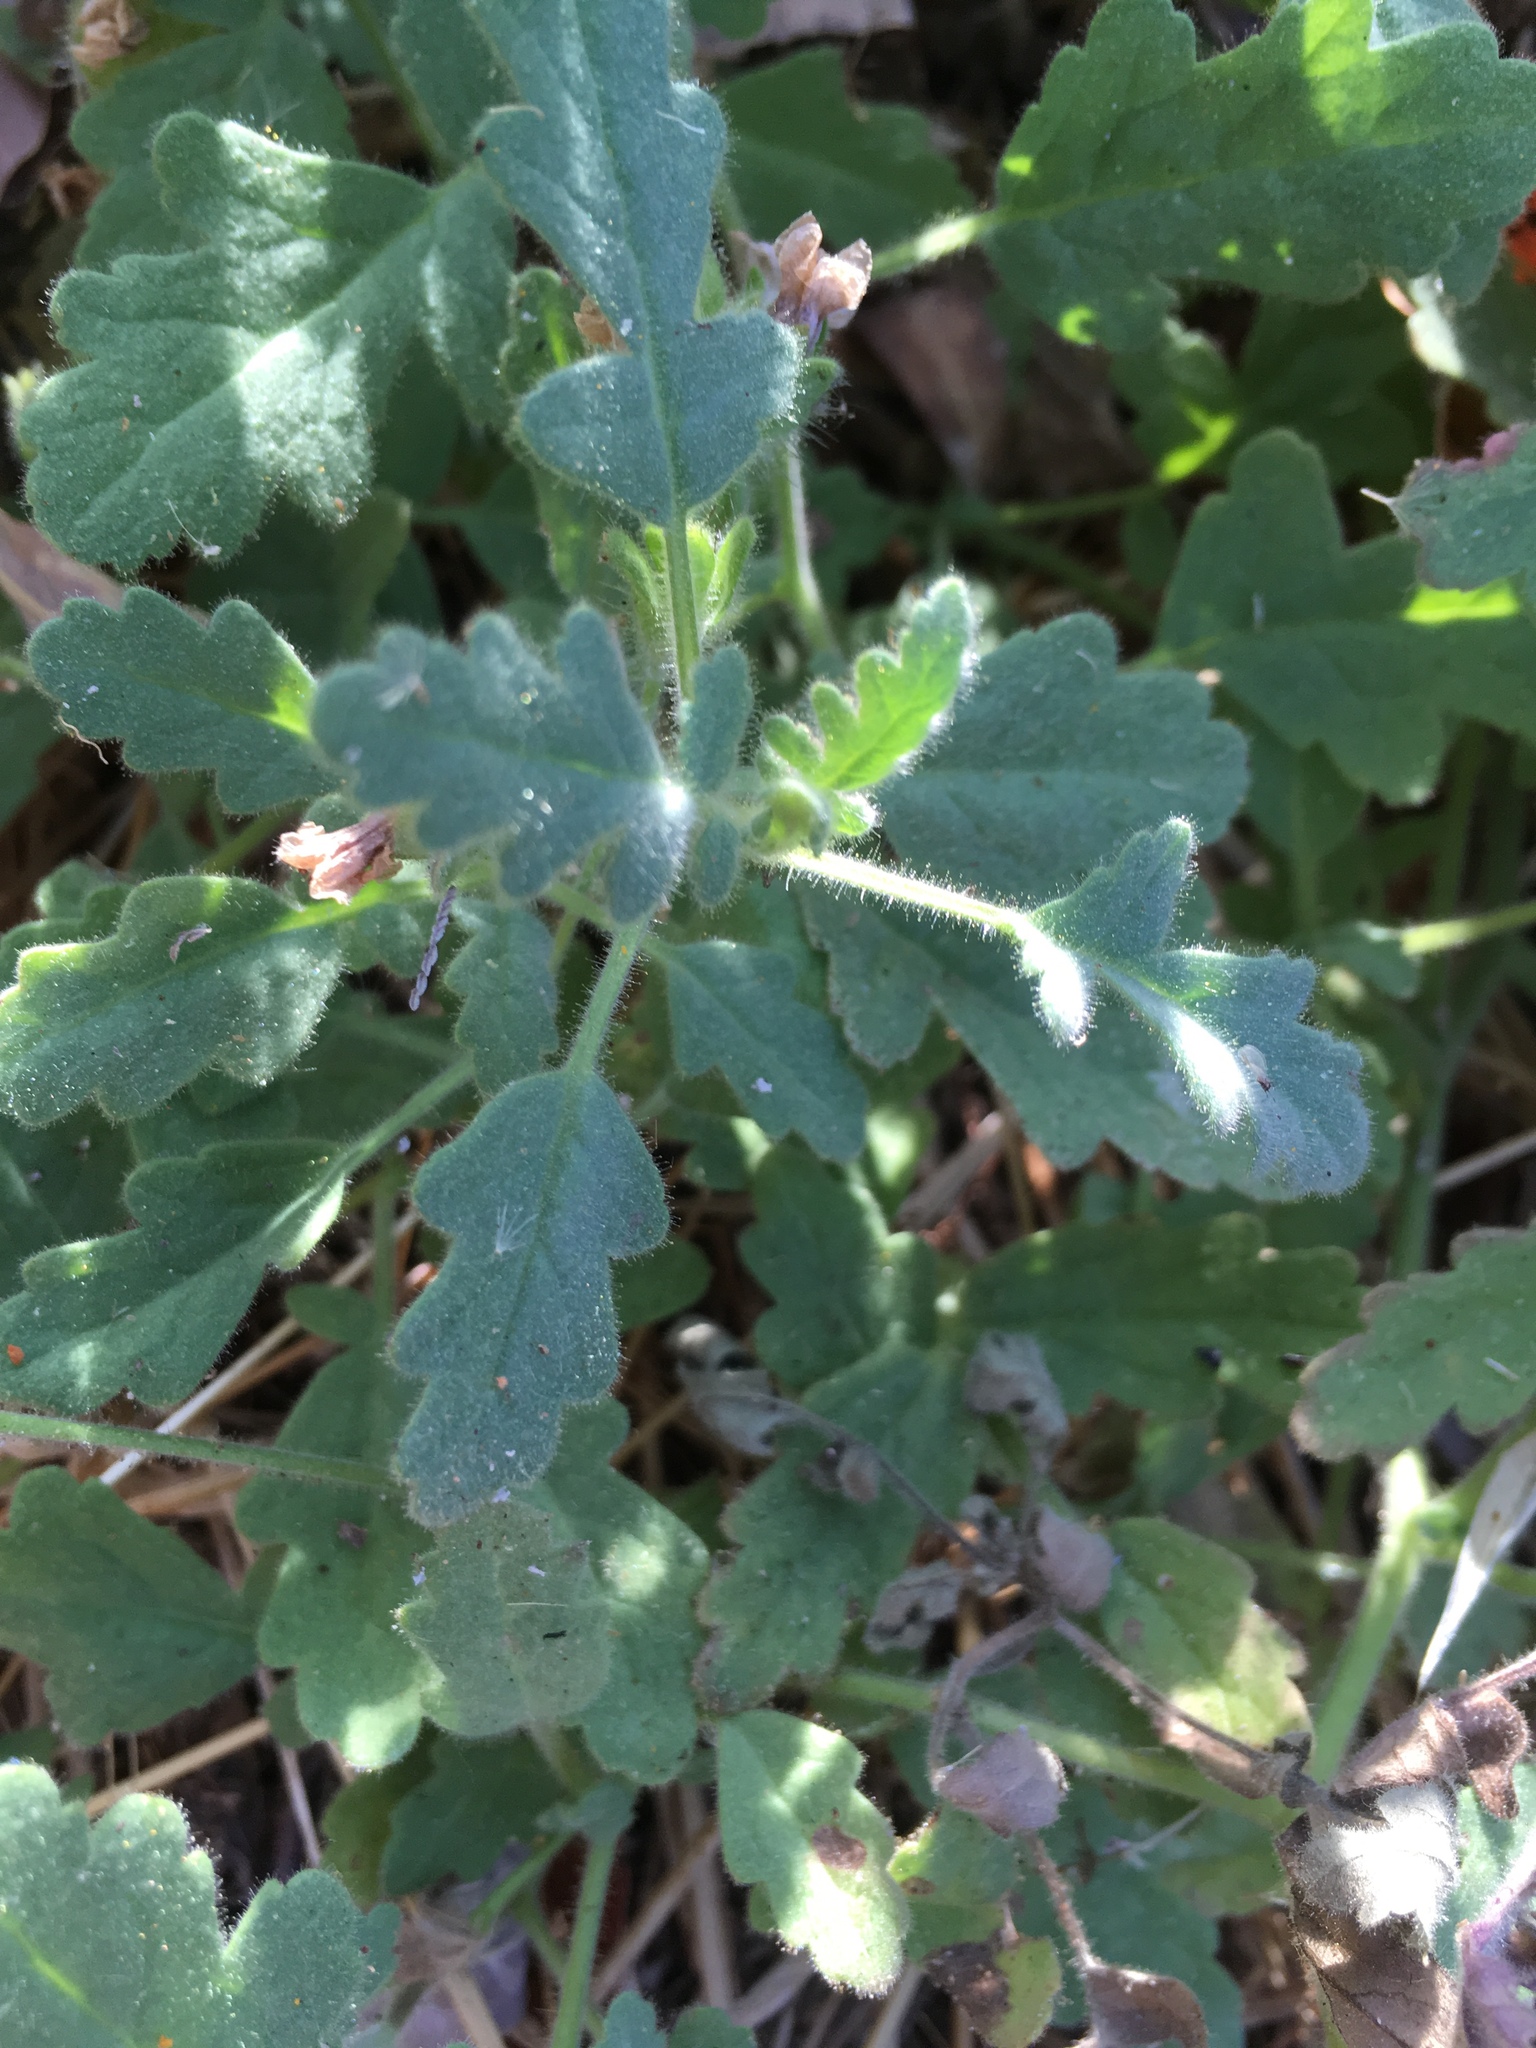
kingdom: Plantae
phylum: Tracheophyta
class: Magnoliopsida
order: Boraginales
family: Hydrophyllaceae
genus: Phacelia
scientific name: Phacelia ramosissima
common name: Branching phacelia
